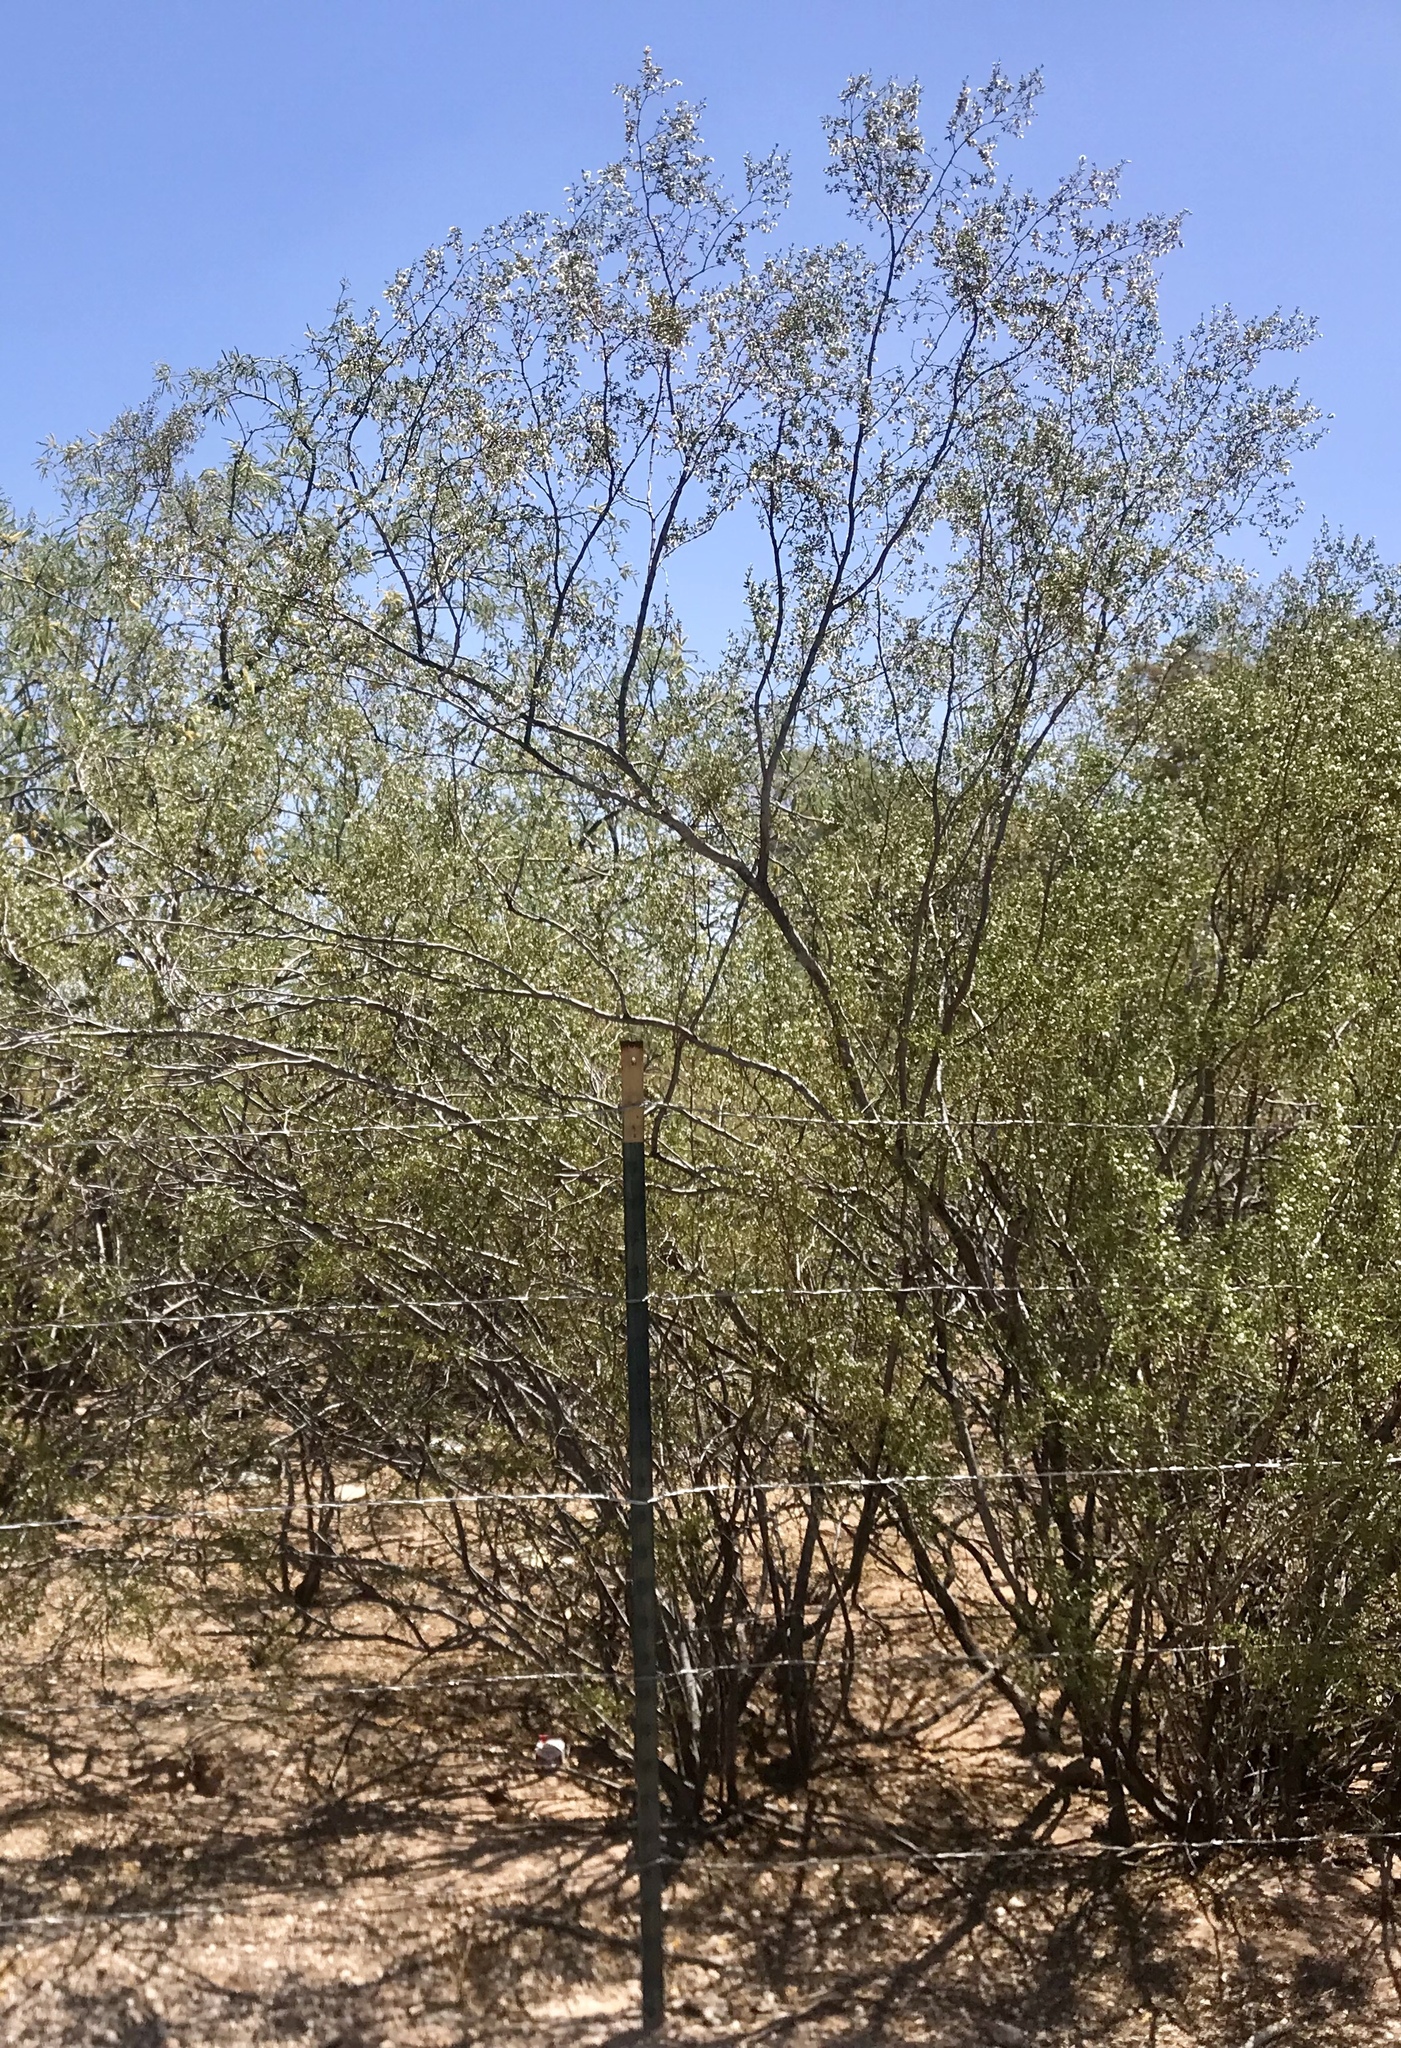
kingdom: Plantae
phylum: Tracheophyta
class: Magnoliopsida
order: Zygophyllales
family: Zygophyllaceae
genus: Larrea
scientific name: Larrea tridentata
